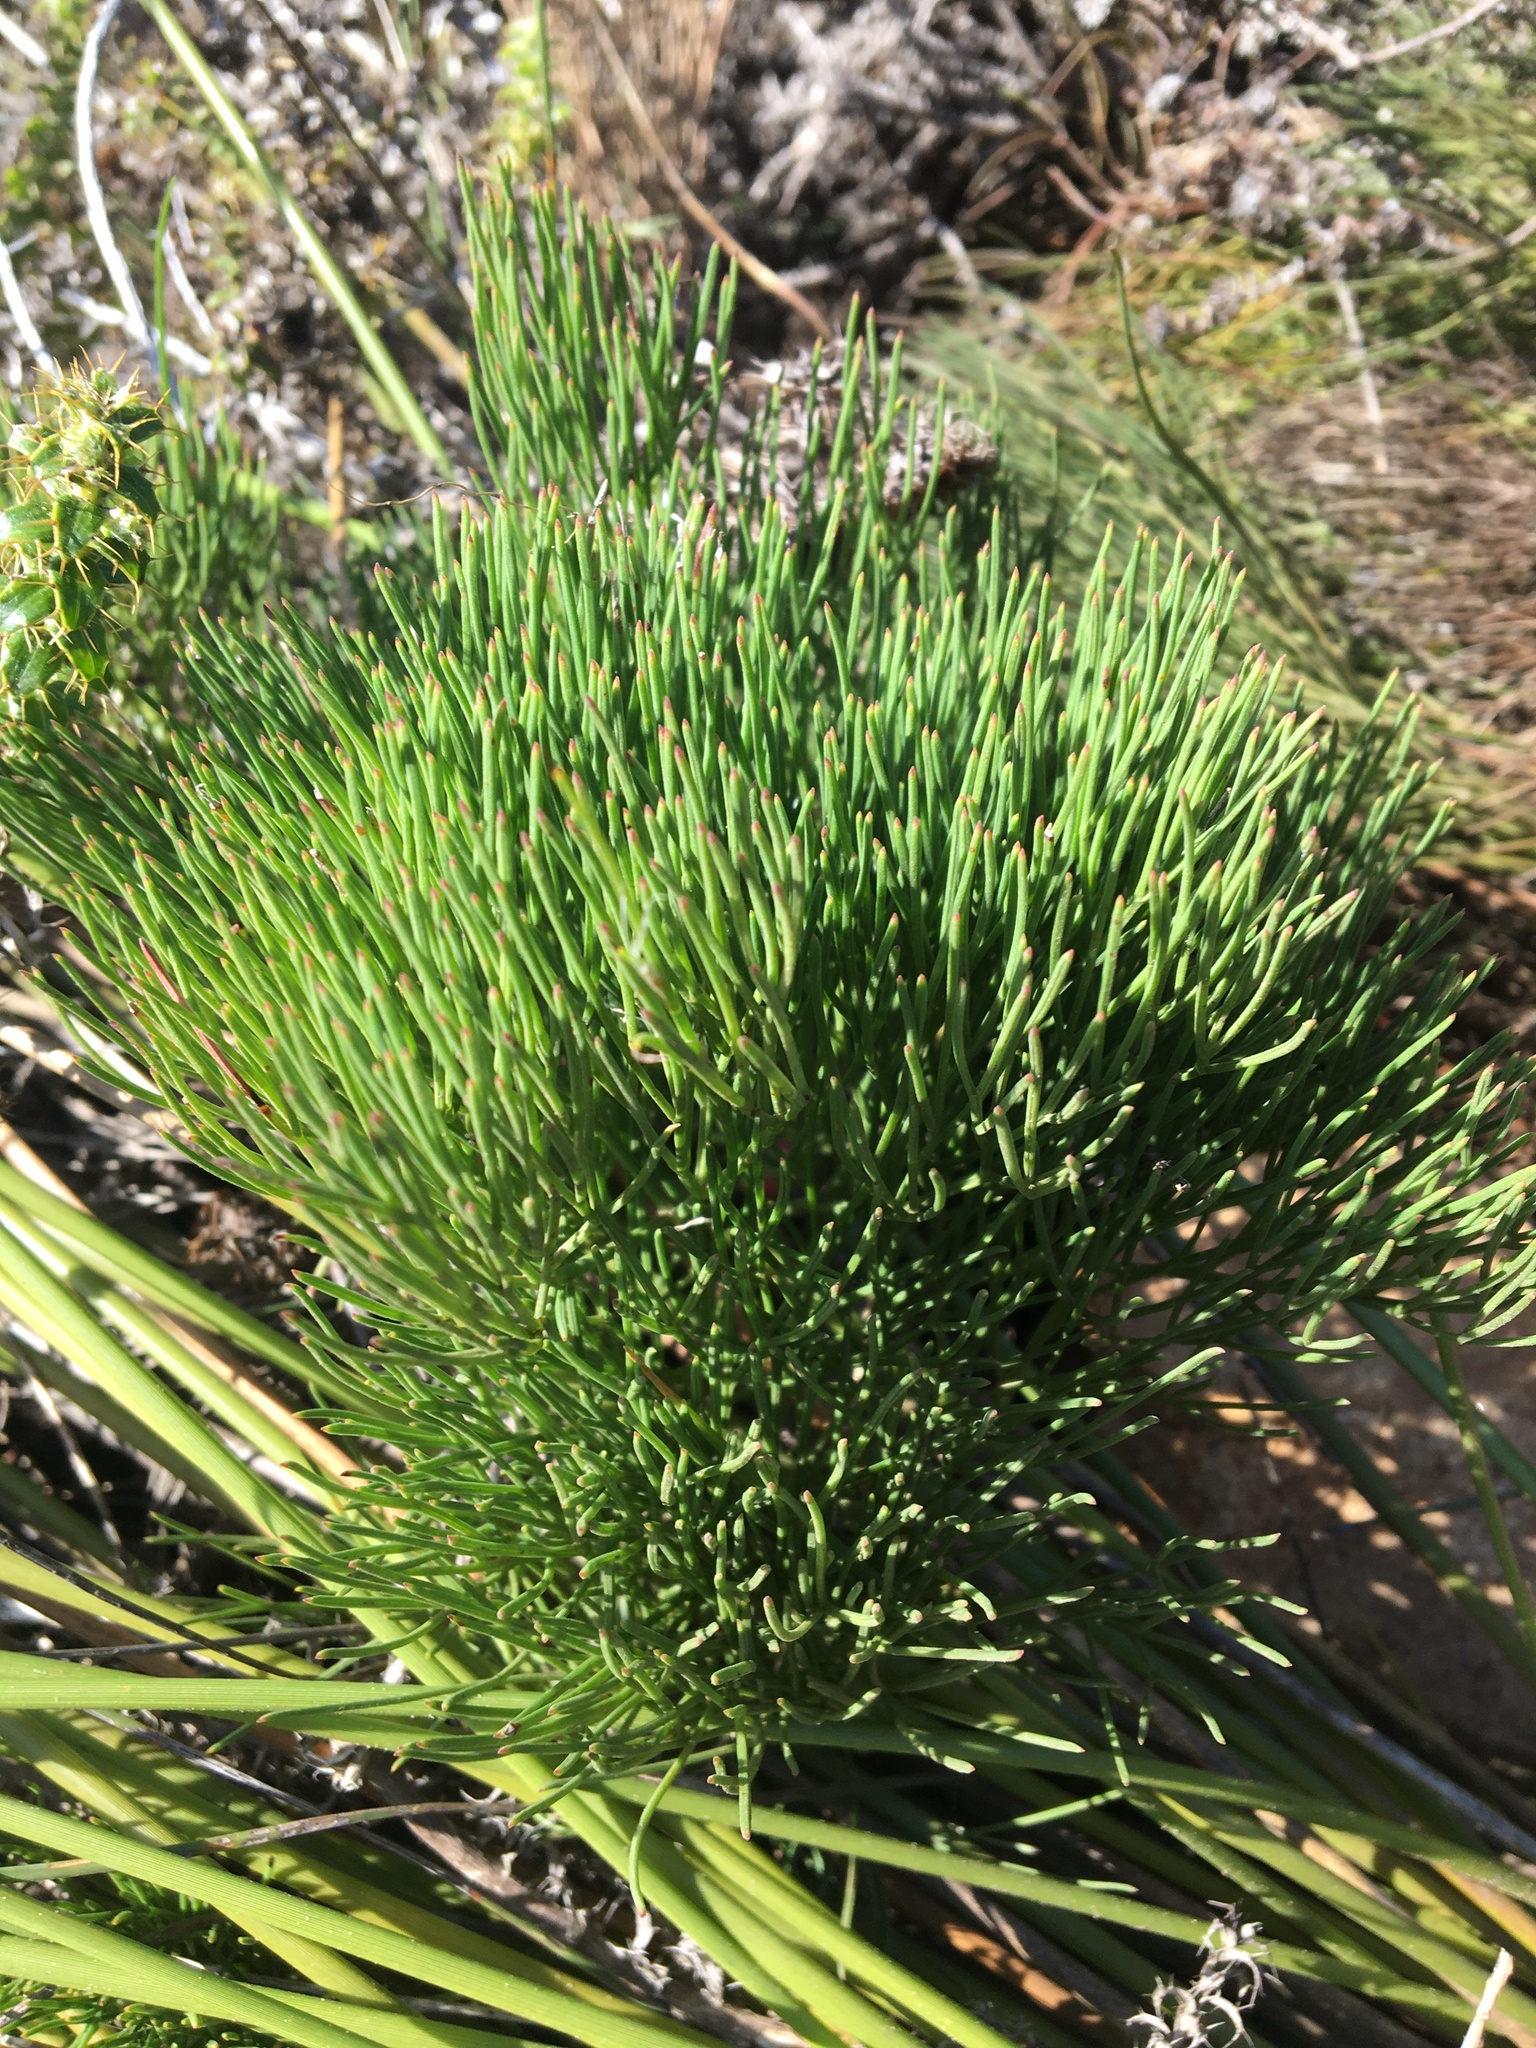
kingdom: Plantae
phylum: Tracheophyta
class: Magnoliopsida
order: Apiales
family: Apiaceae
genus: Nanobubon
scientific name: Nanobubon strictum
